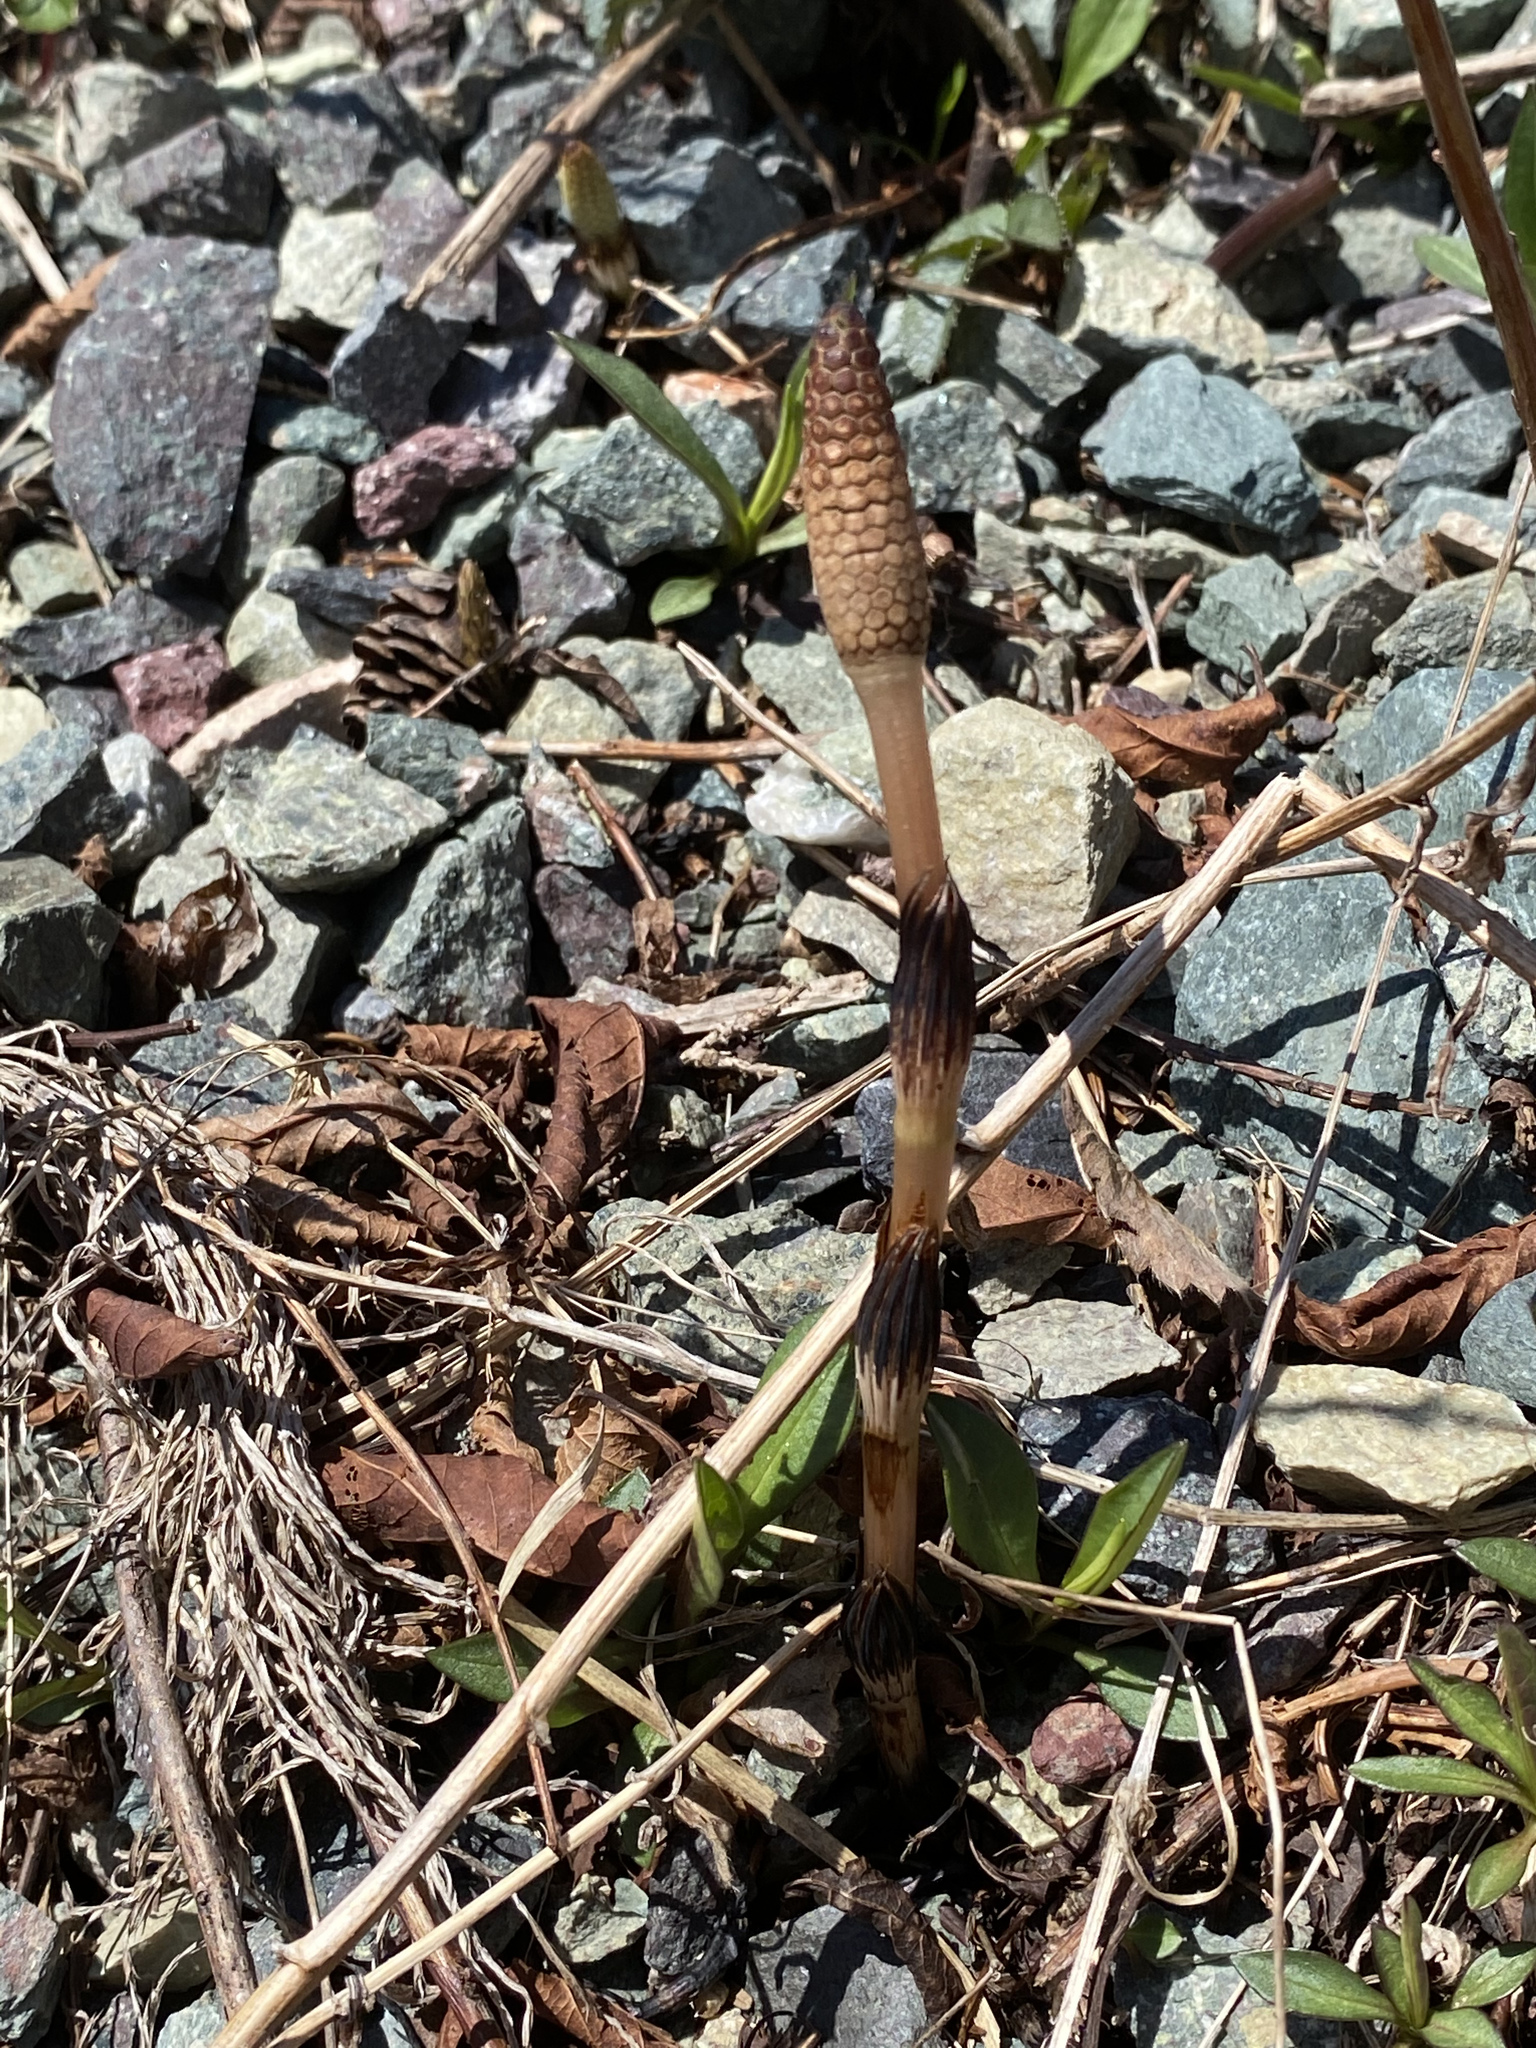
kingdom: Plantae
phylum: Tracheophyta
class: Polypodiopsida
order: Equisetales
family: Equisetaceae
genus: Equisetum
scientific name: Equisetum arvense
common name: Field horsetail
